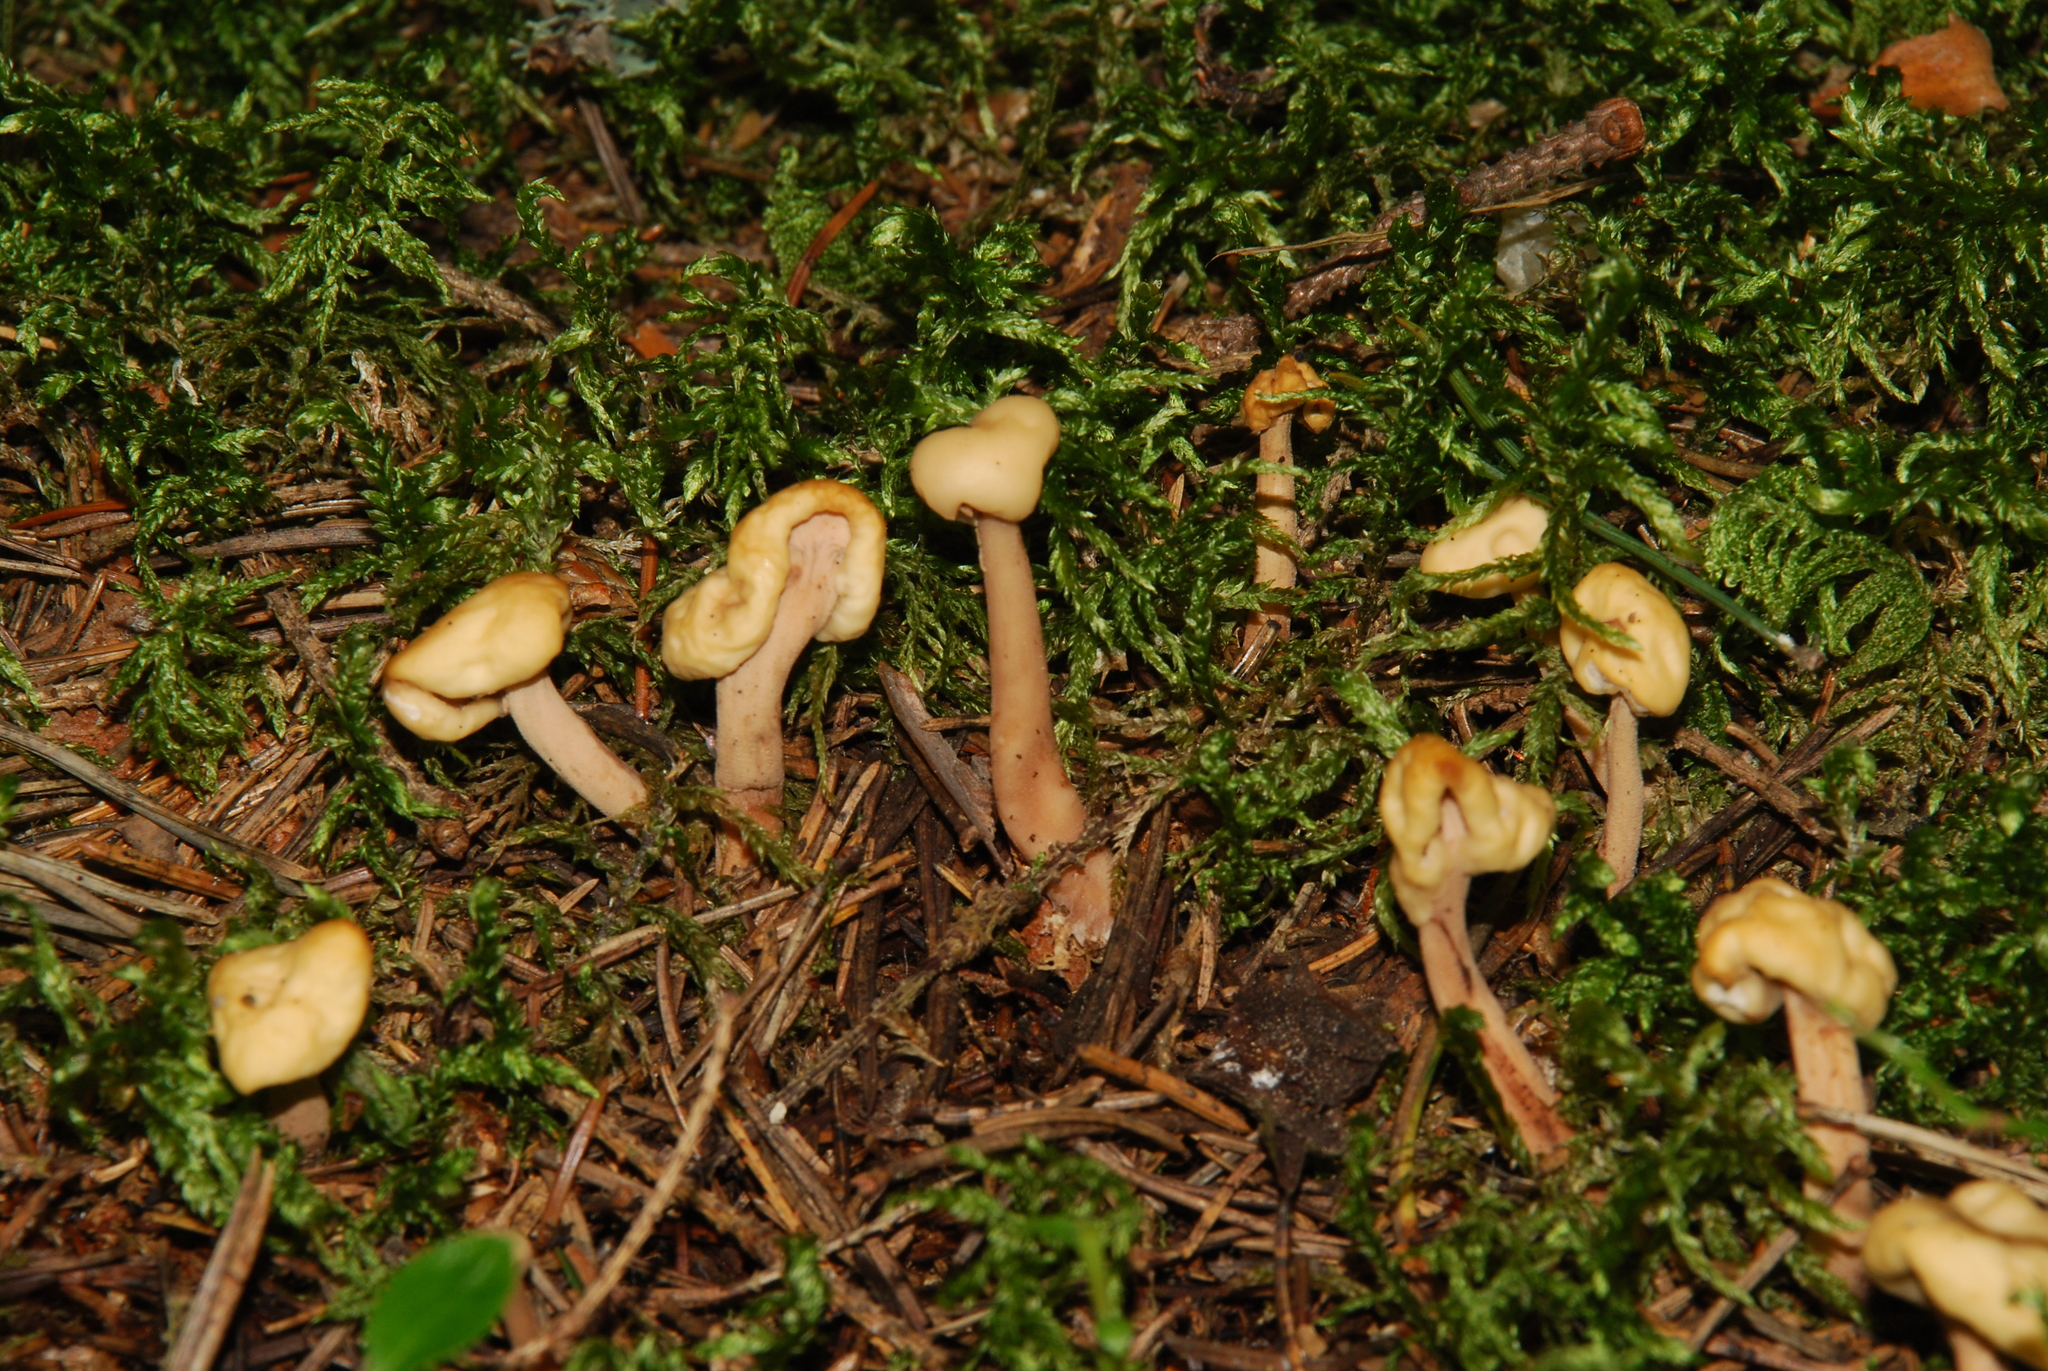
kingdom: Fungi
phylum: Ascomycota
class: Leotiomycetes
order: Rhytismatales
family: Cudoniaceae
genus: Cudonia
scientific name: Cudonia circinans
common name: Redleg jellybaby
